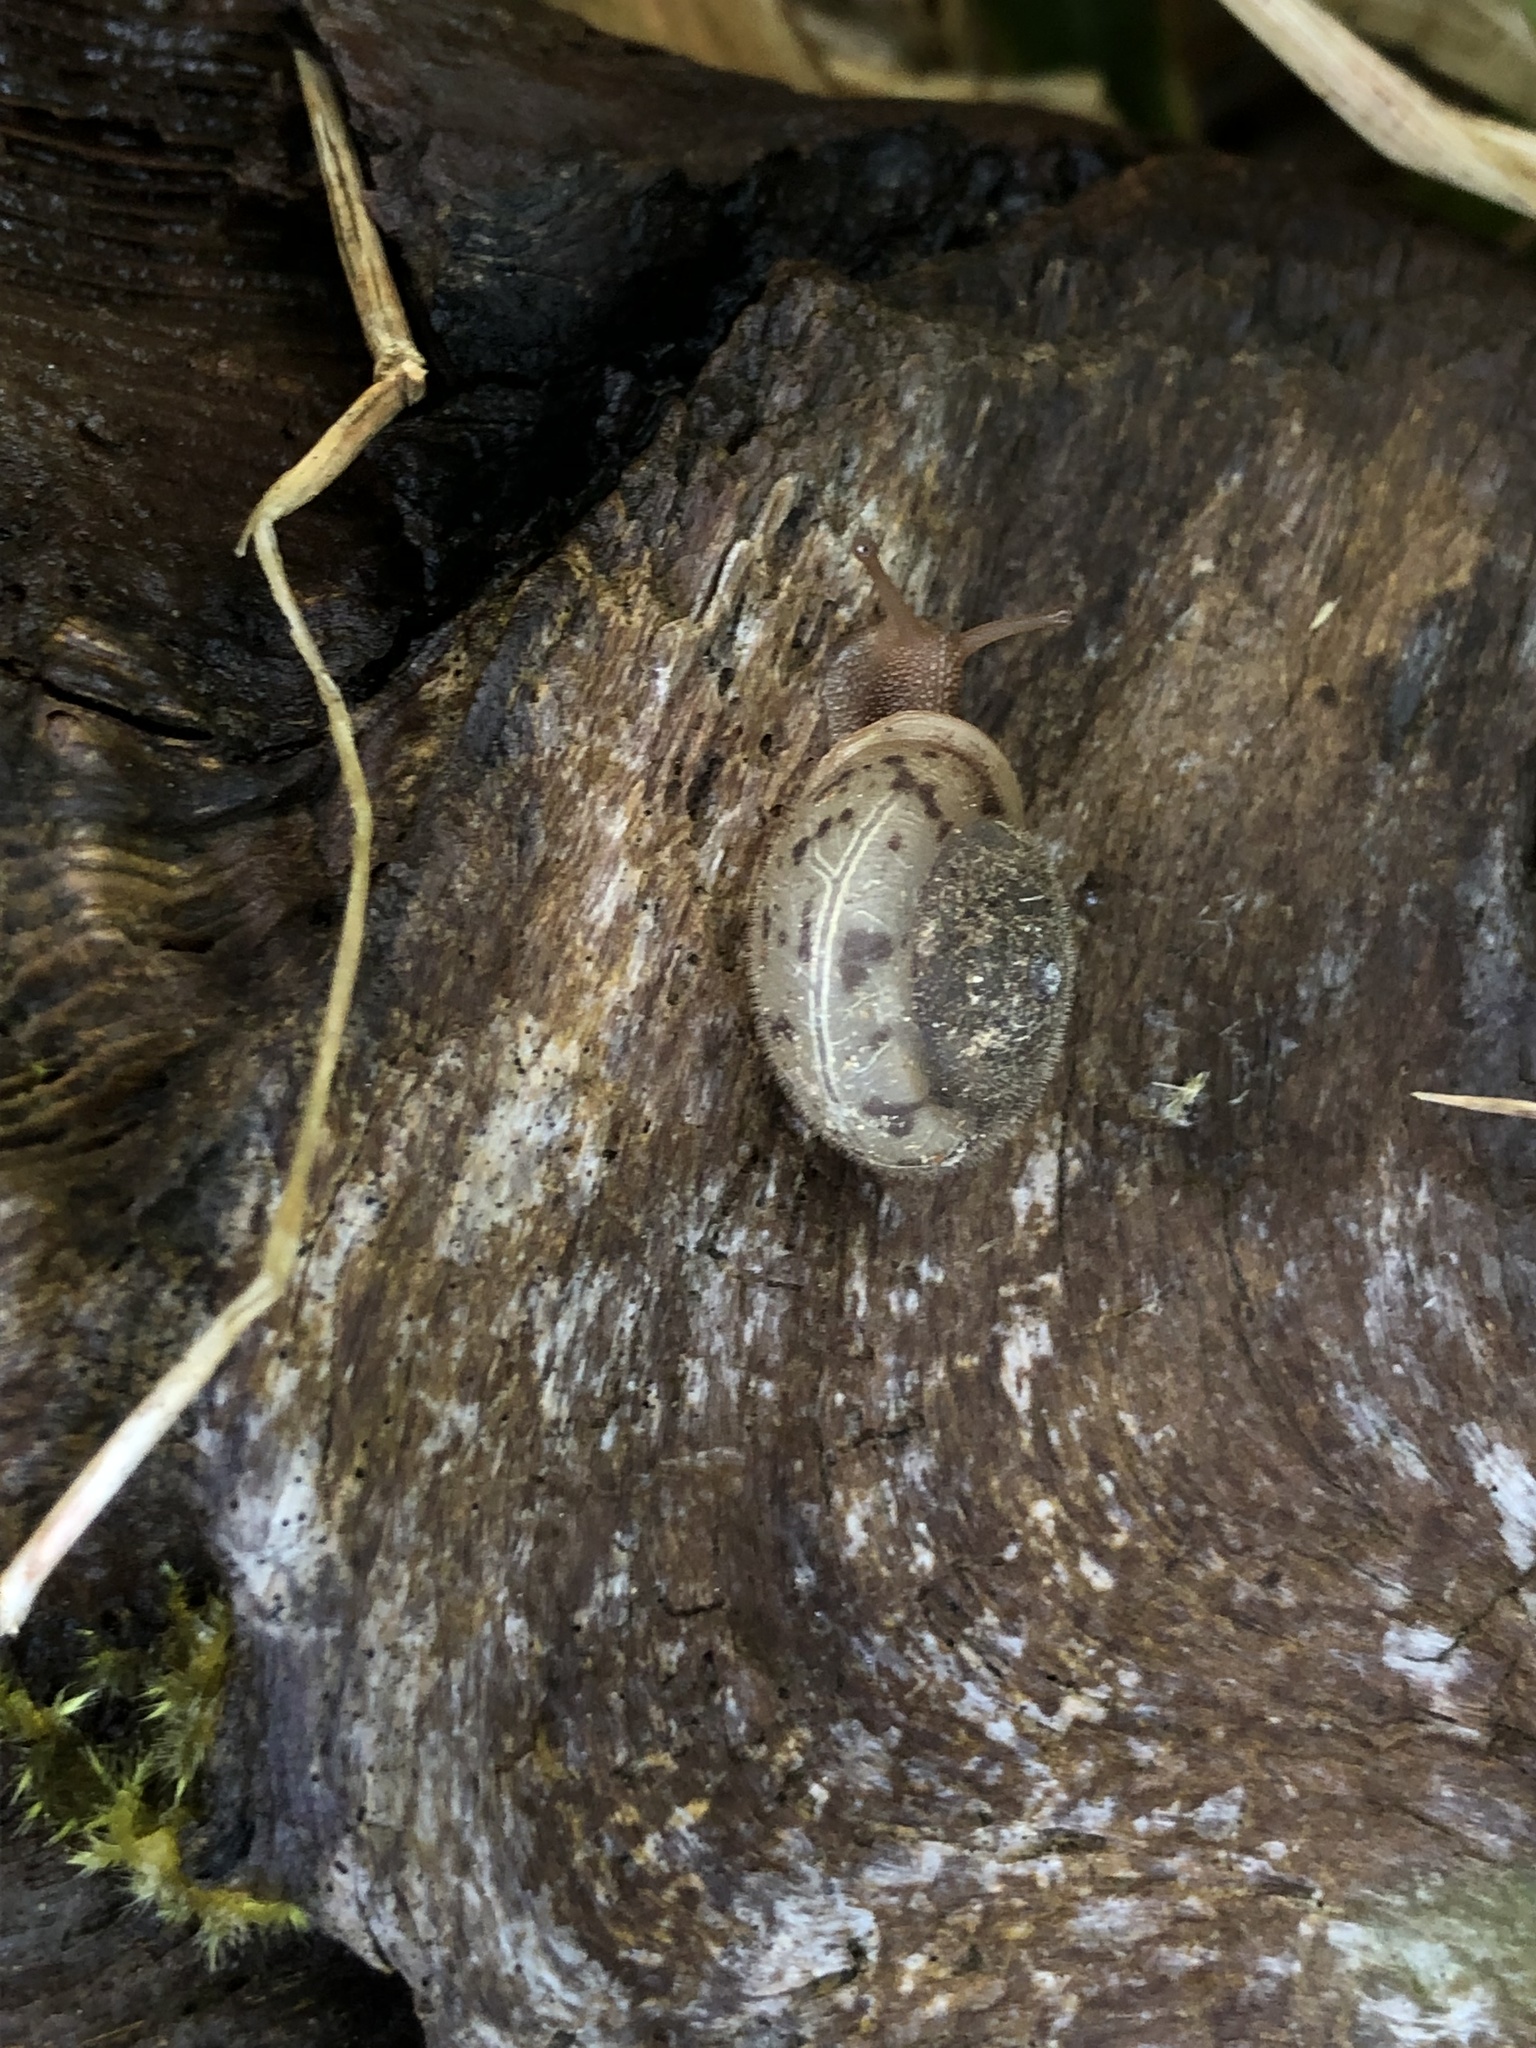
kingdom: Animalia
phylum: Mollusca
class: Gastropoda
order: Stylommatophora
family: Polygyridae
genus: Vespericola
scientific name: Vespericola columbianus
